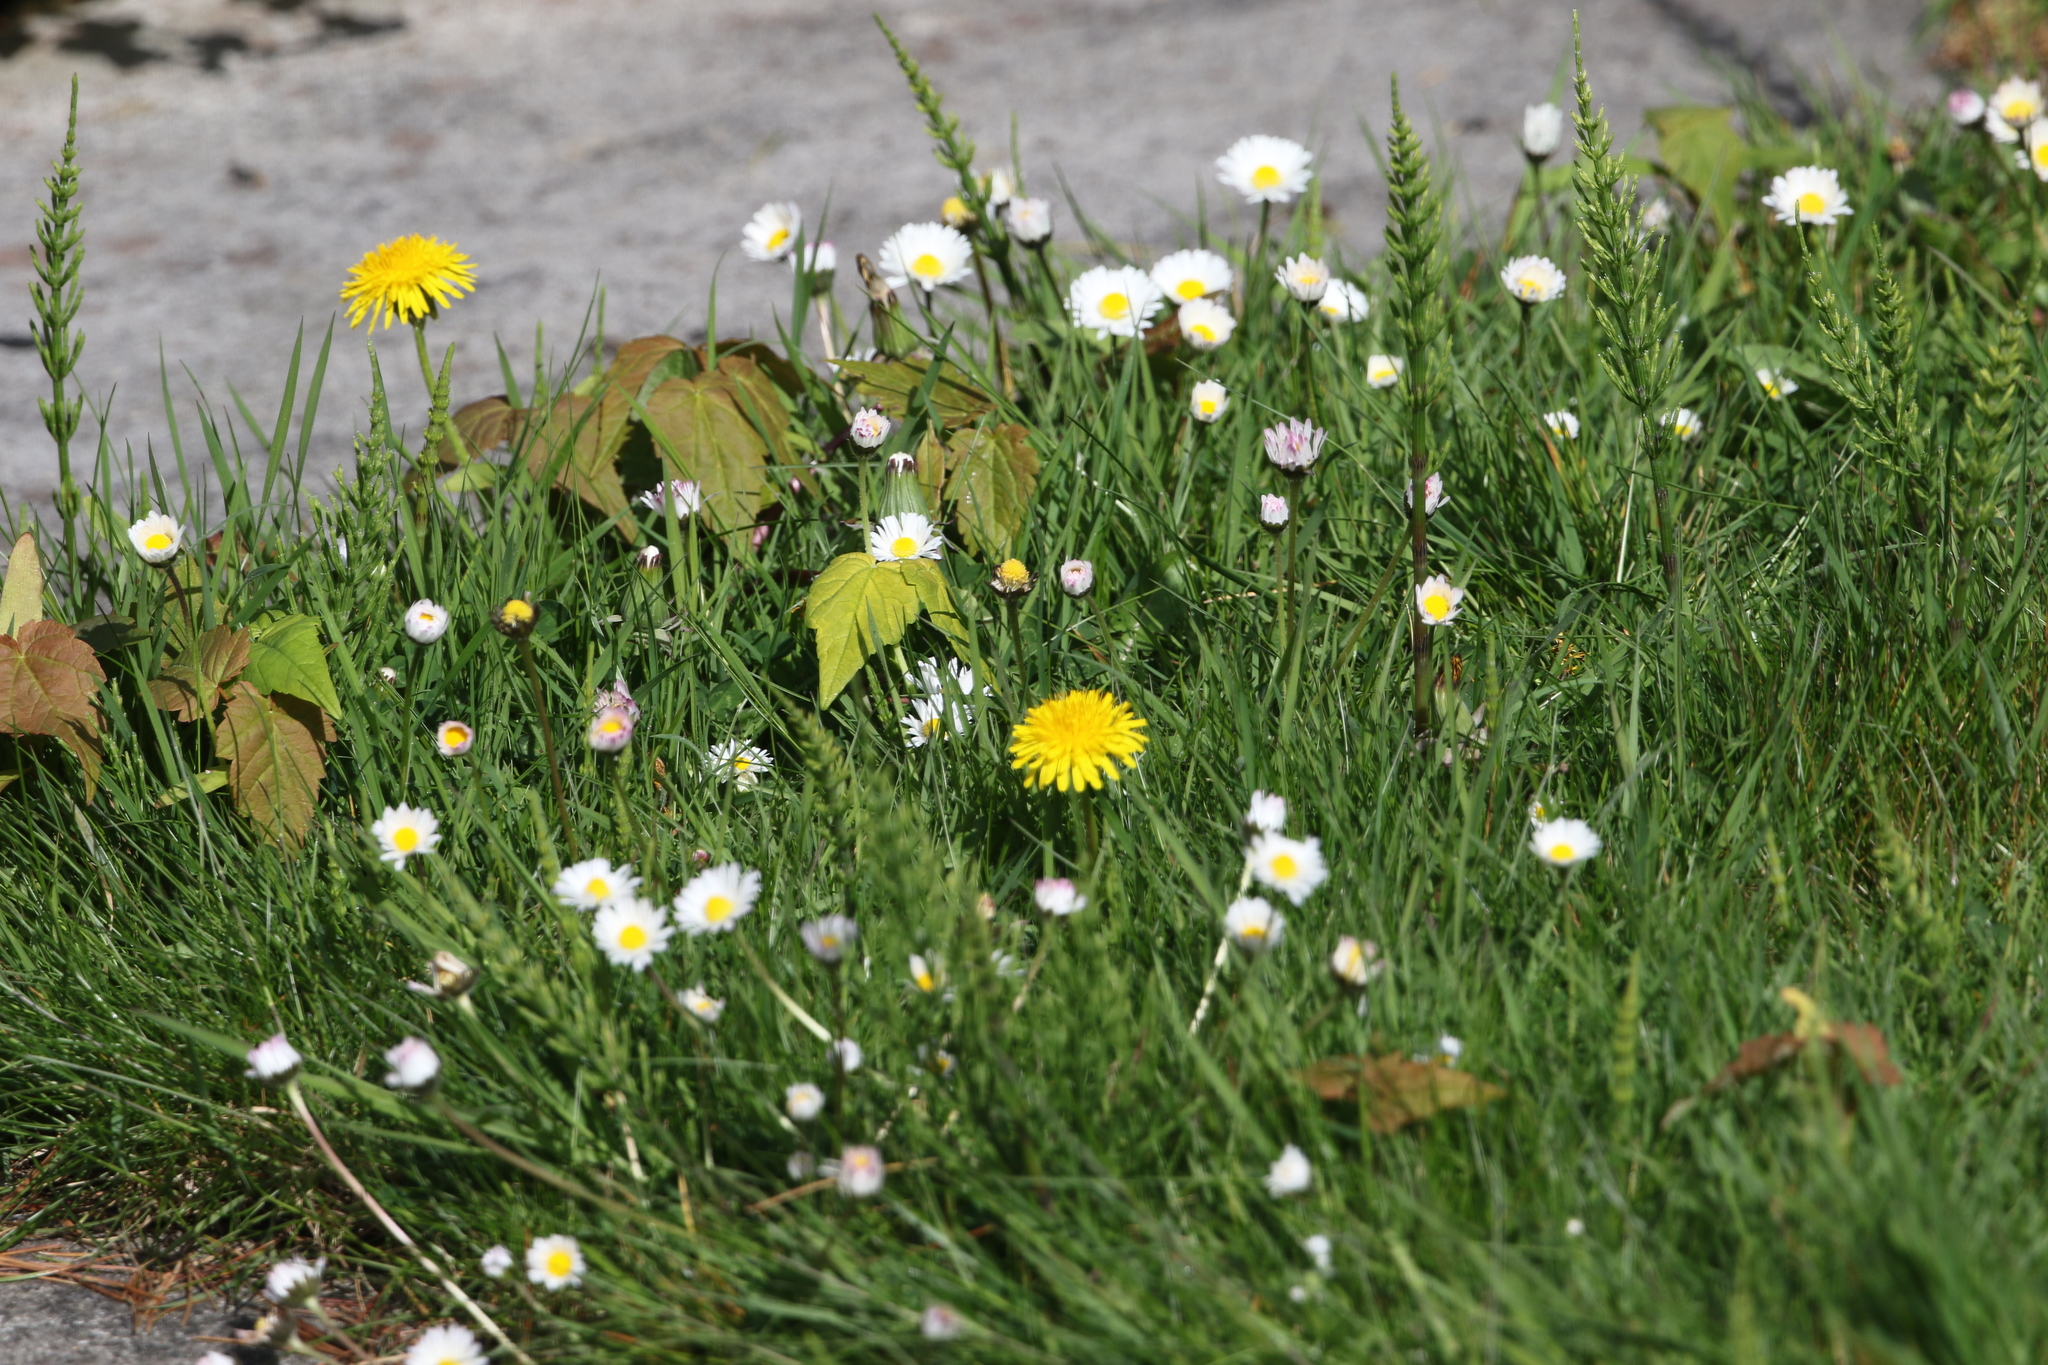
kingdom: Plantae
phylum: Tracheophyta
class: Magnoliopsida
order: Asterales
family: Asteraceae
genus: Bellis
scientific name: Bellis perennis
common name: Lawndaisy
